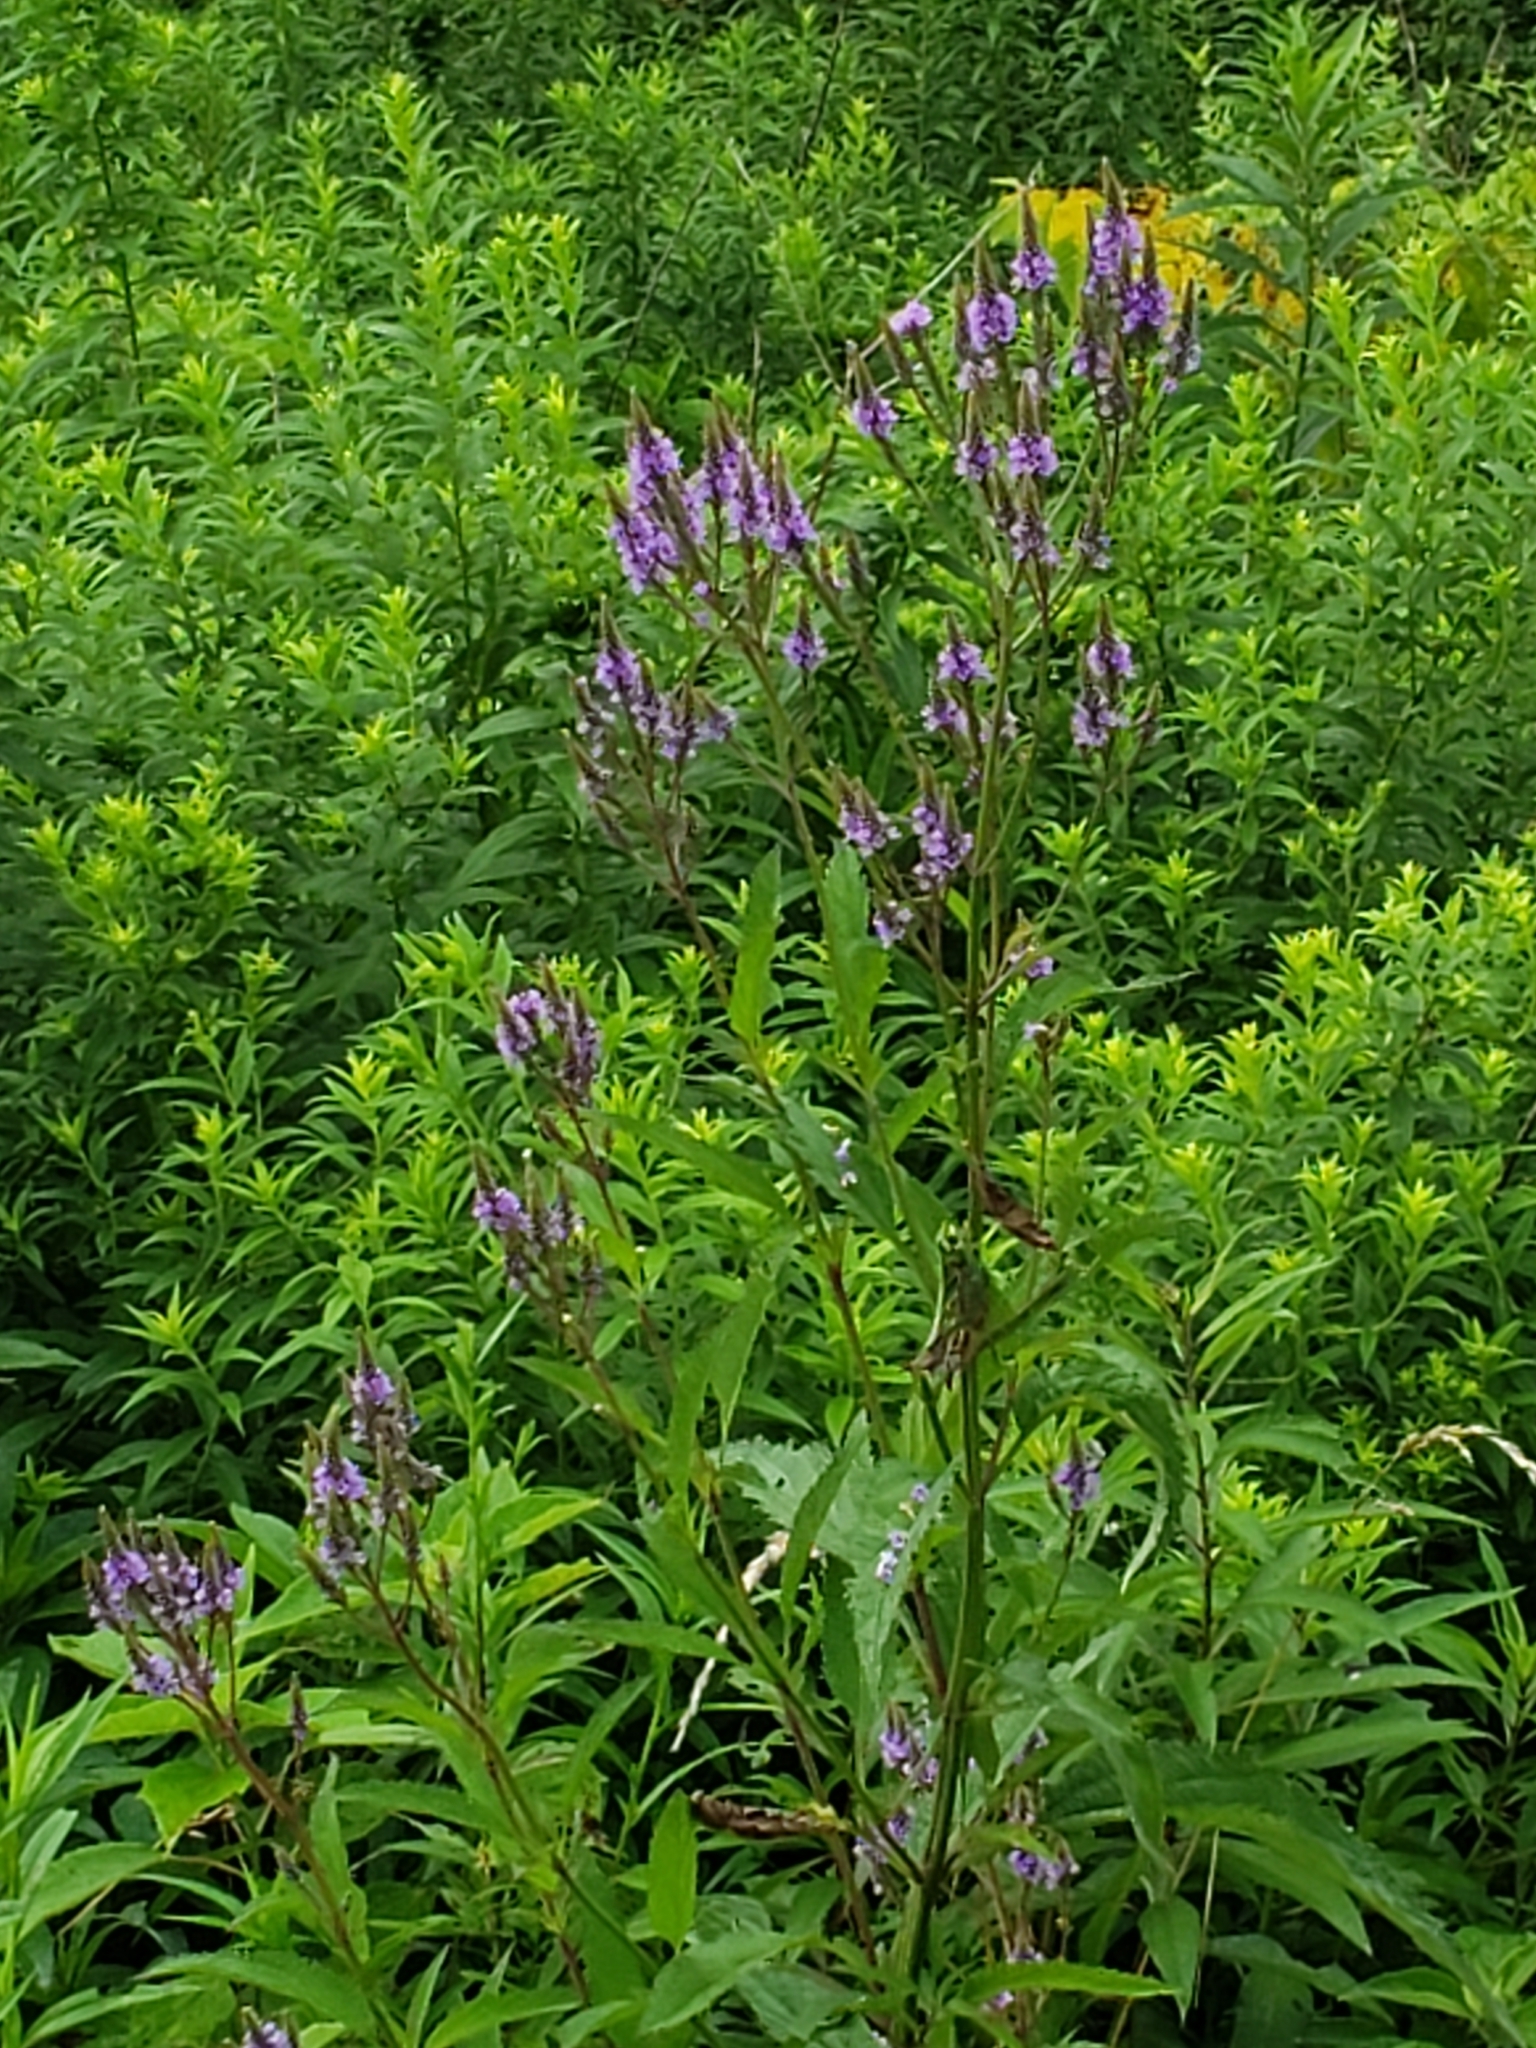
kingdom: Plantae
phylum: Tracheophyta
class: Magnoliopsida
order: Lamiales
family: Verbenaceae
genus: Verbena
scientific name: Verbena hastata
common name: American blue vervain
